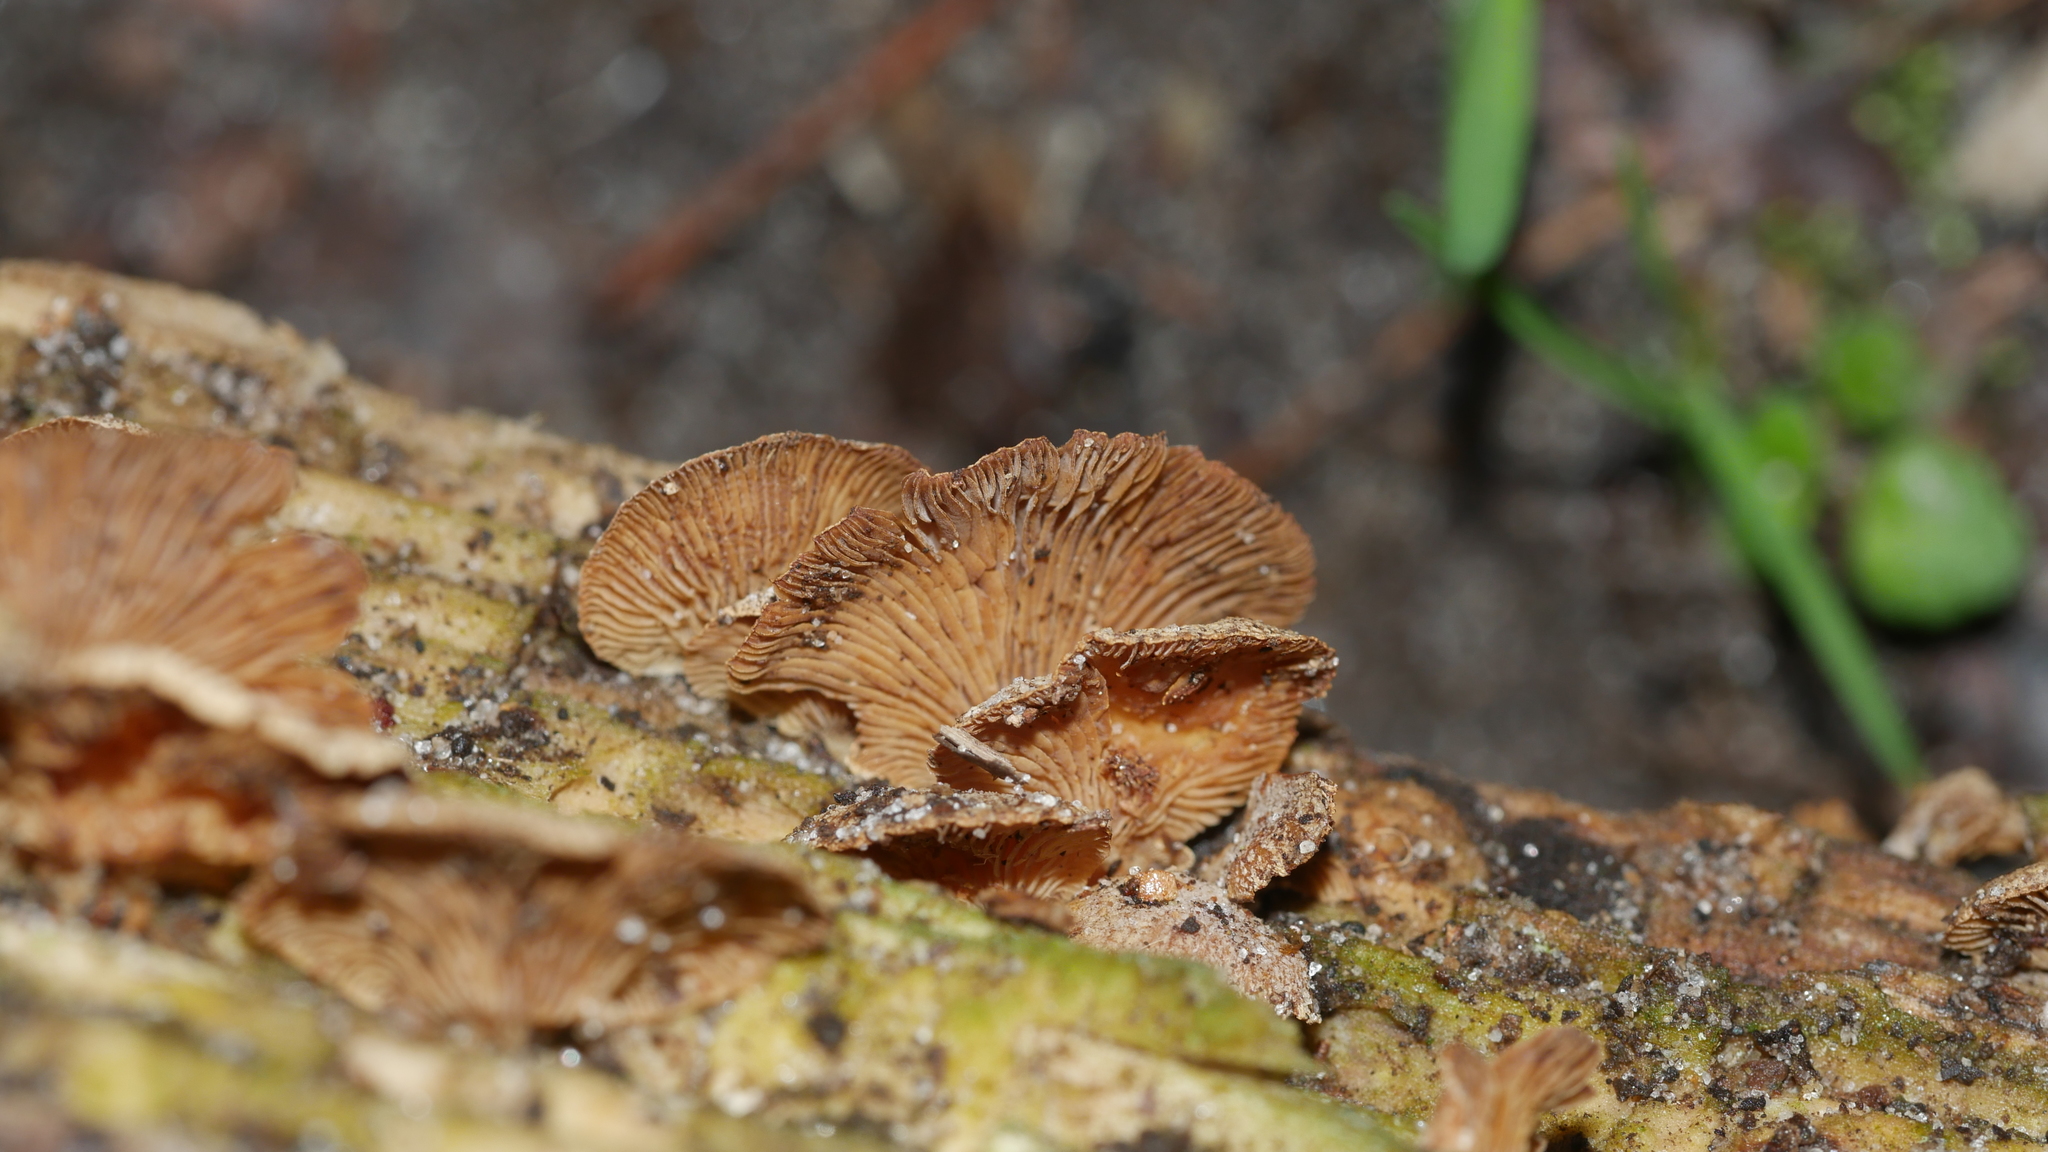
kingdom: Fungi
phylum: Basidiomycota
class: Agaricomycetes
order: Agaricales
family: Mycenaceae
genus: Panellus
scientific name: Panellus stipticus
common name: Bitter oysterling
